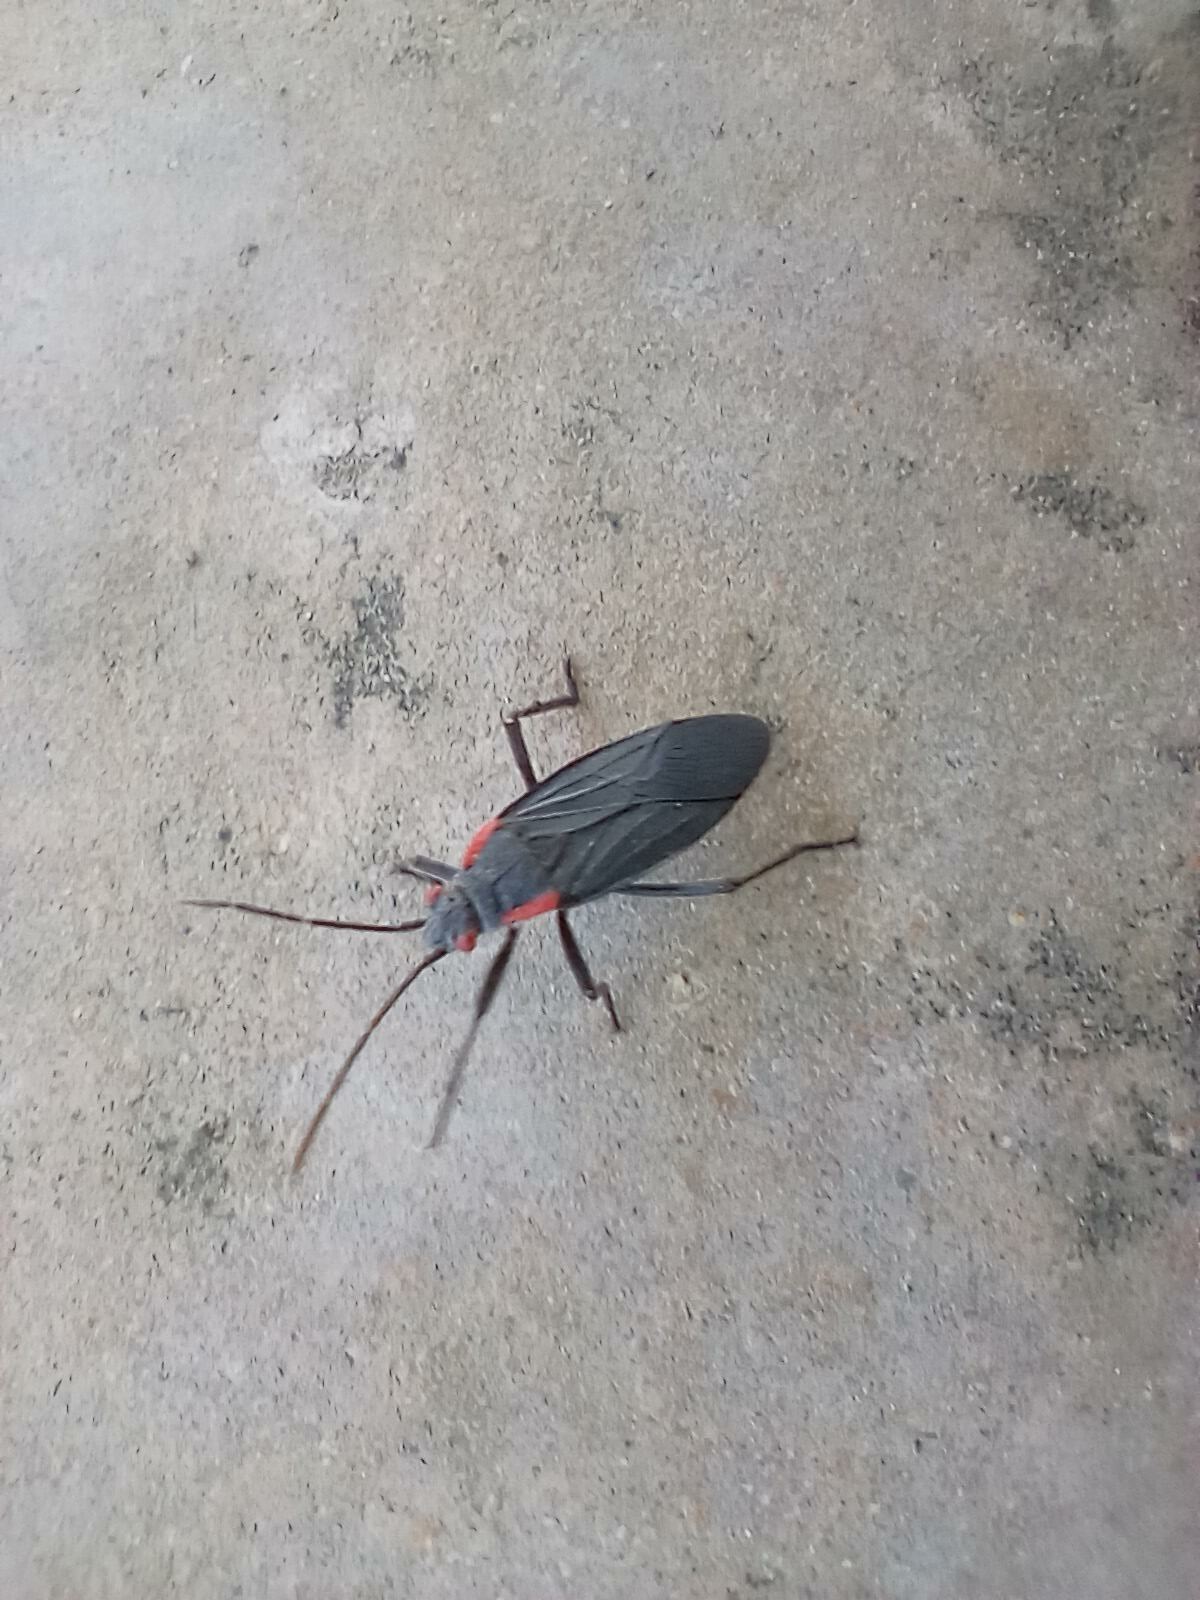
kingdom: Animalia
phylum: Arthropoda
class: Insecta
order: Hemiptera
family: Rhopalidae
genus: Jadera
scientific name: Jadera haematoloma
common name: Red-shouldered bug
